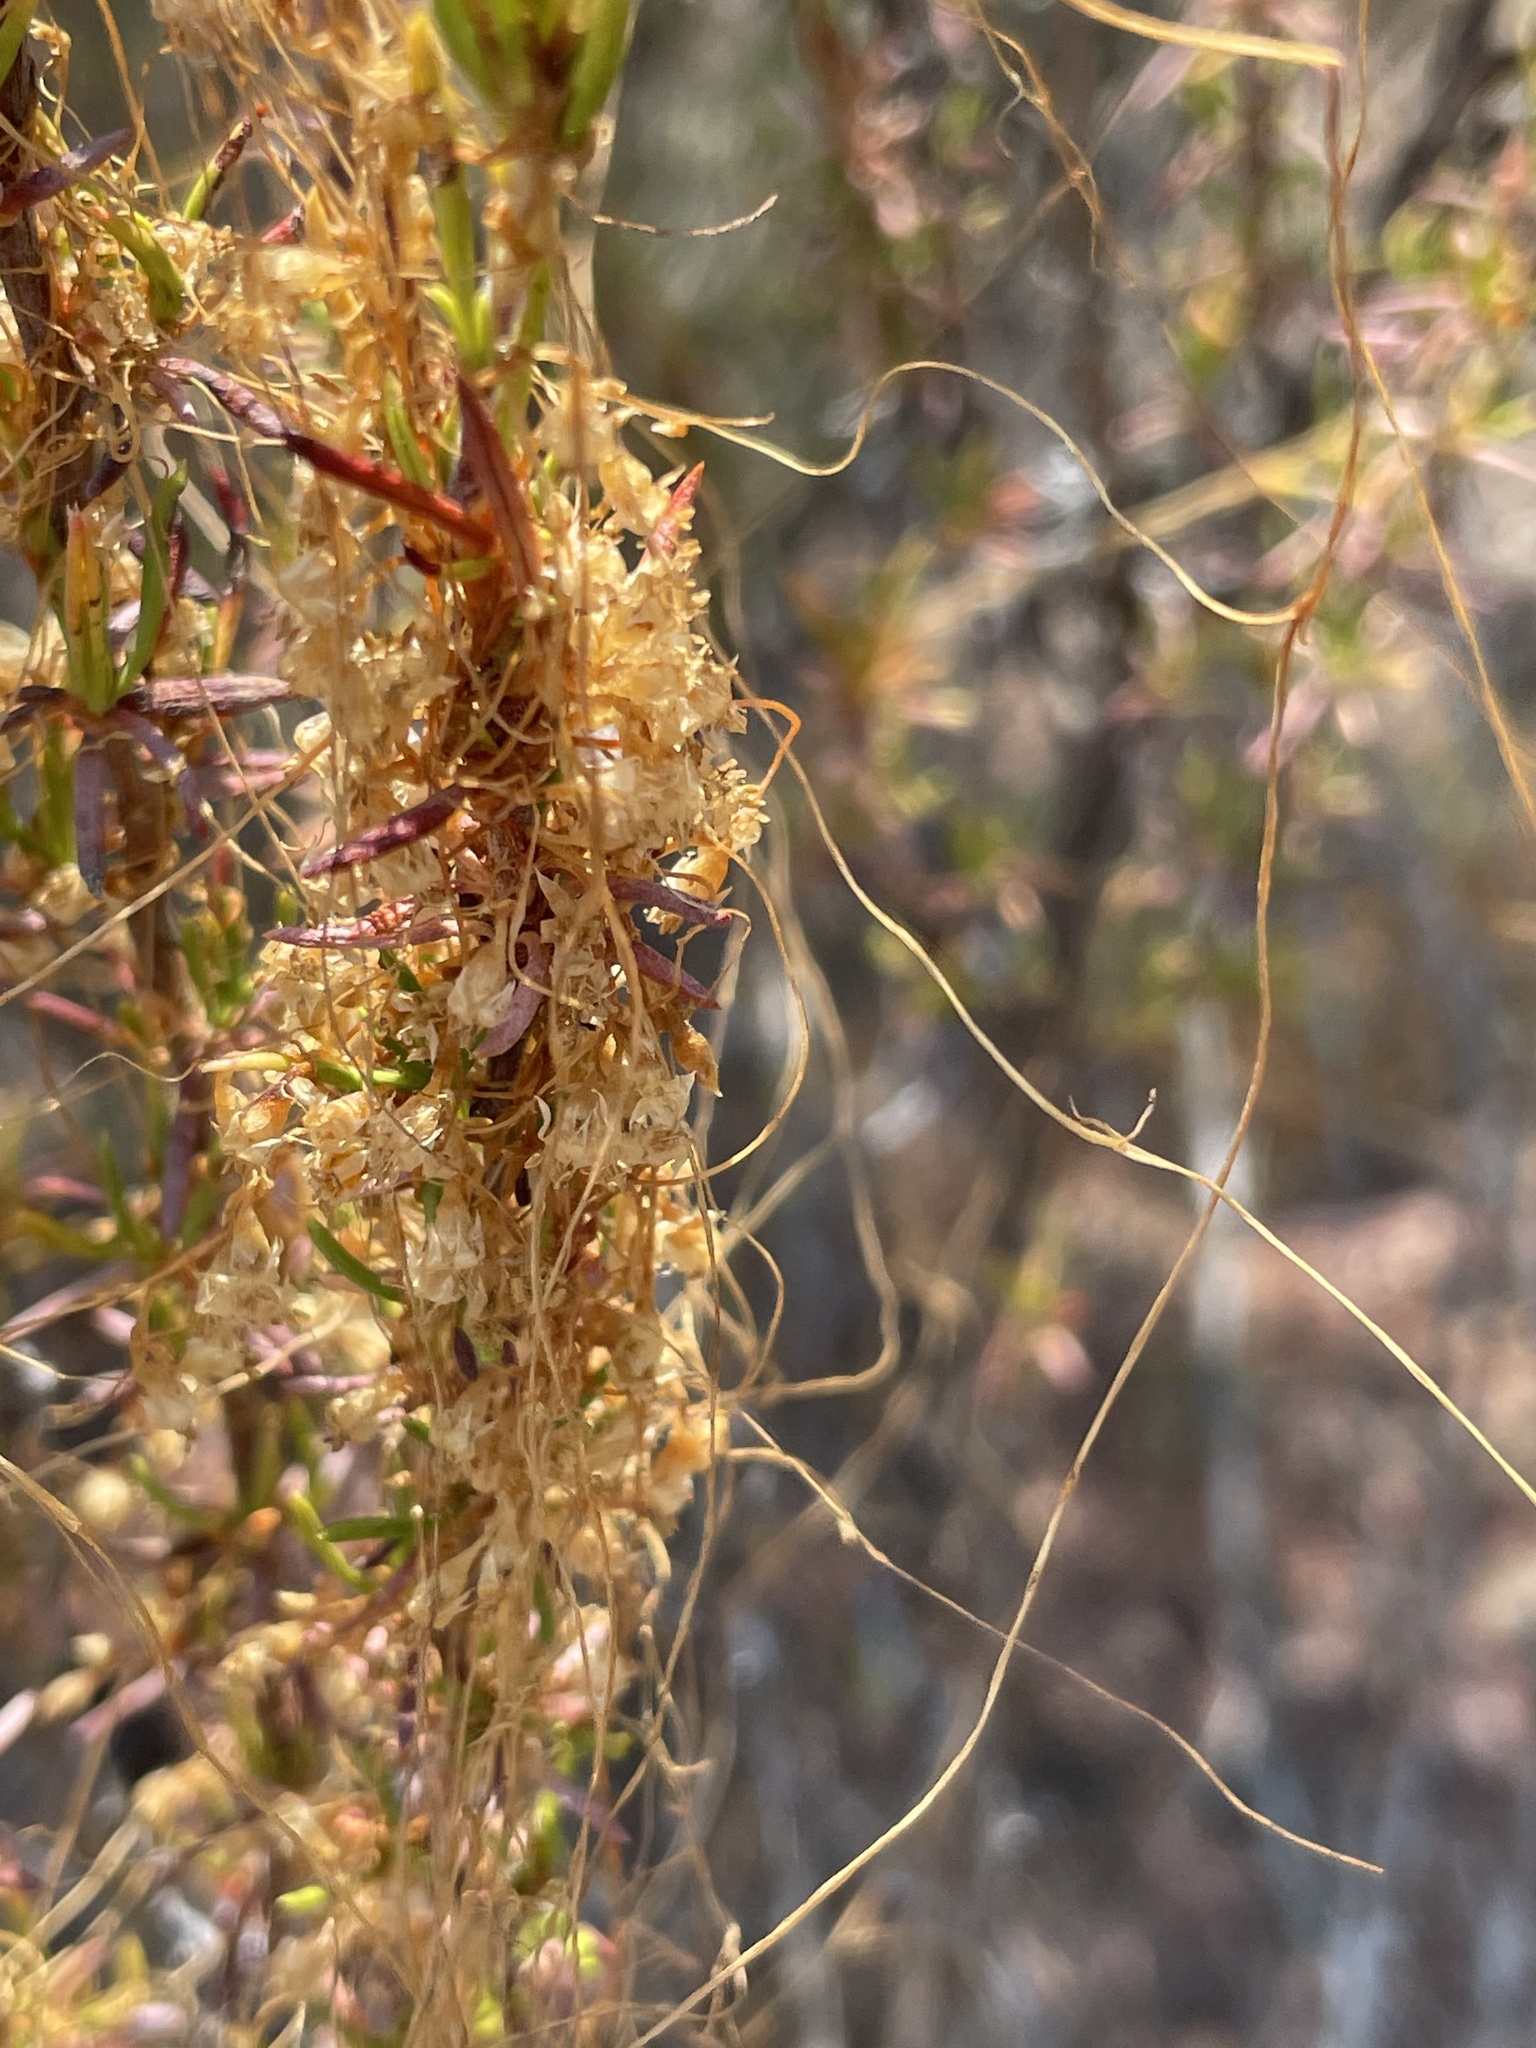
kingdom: Plantae
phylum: Tracheophyta
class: Magnoliopsida
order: Solanales
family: Convolvulaceae
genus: Cuscuta
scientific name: Cuscuta californica
